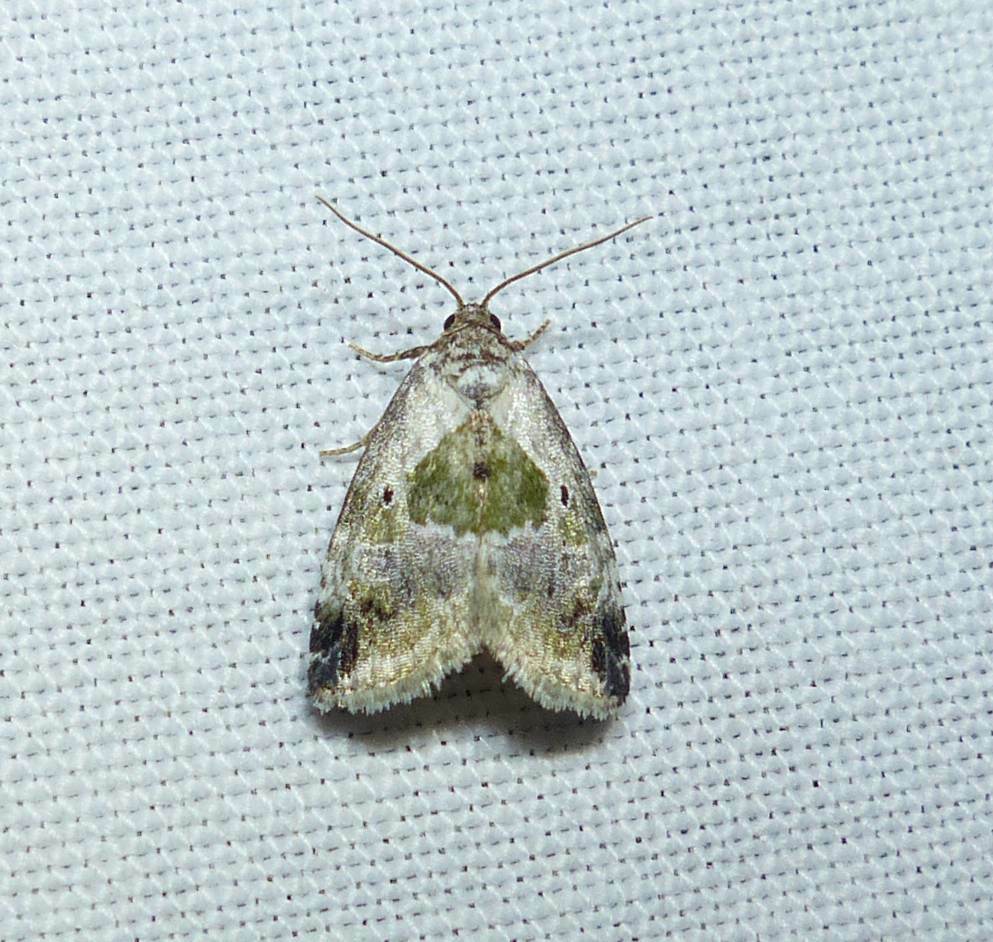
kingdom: Animalia
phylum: Arthropoda
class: Insecta
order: Lepidoptera
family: Noctuidae
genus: Maliattha
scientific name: Maliattha synochitis
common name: Black-dotted glyph
